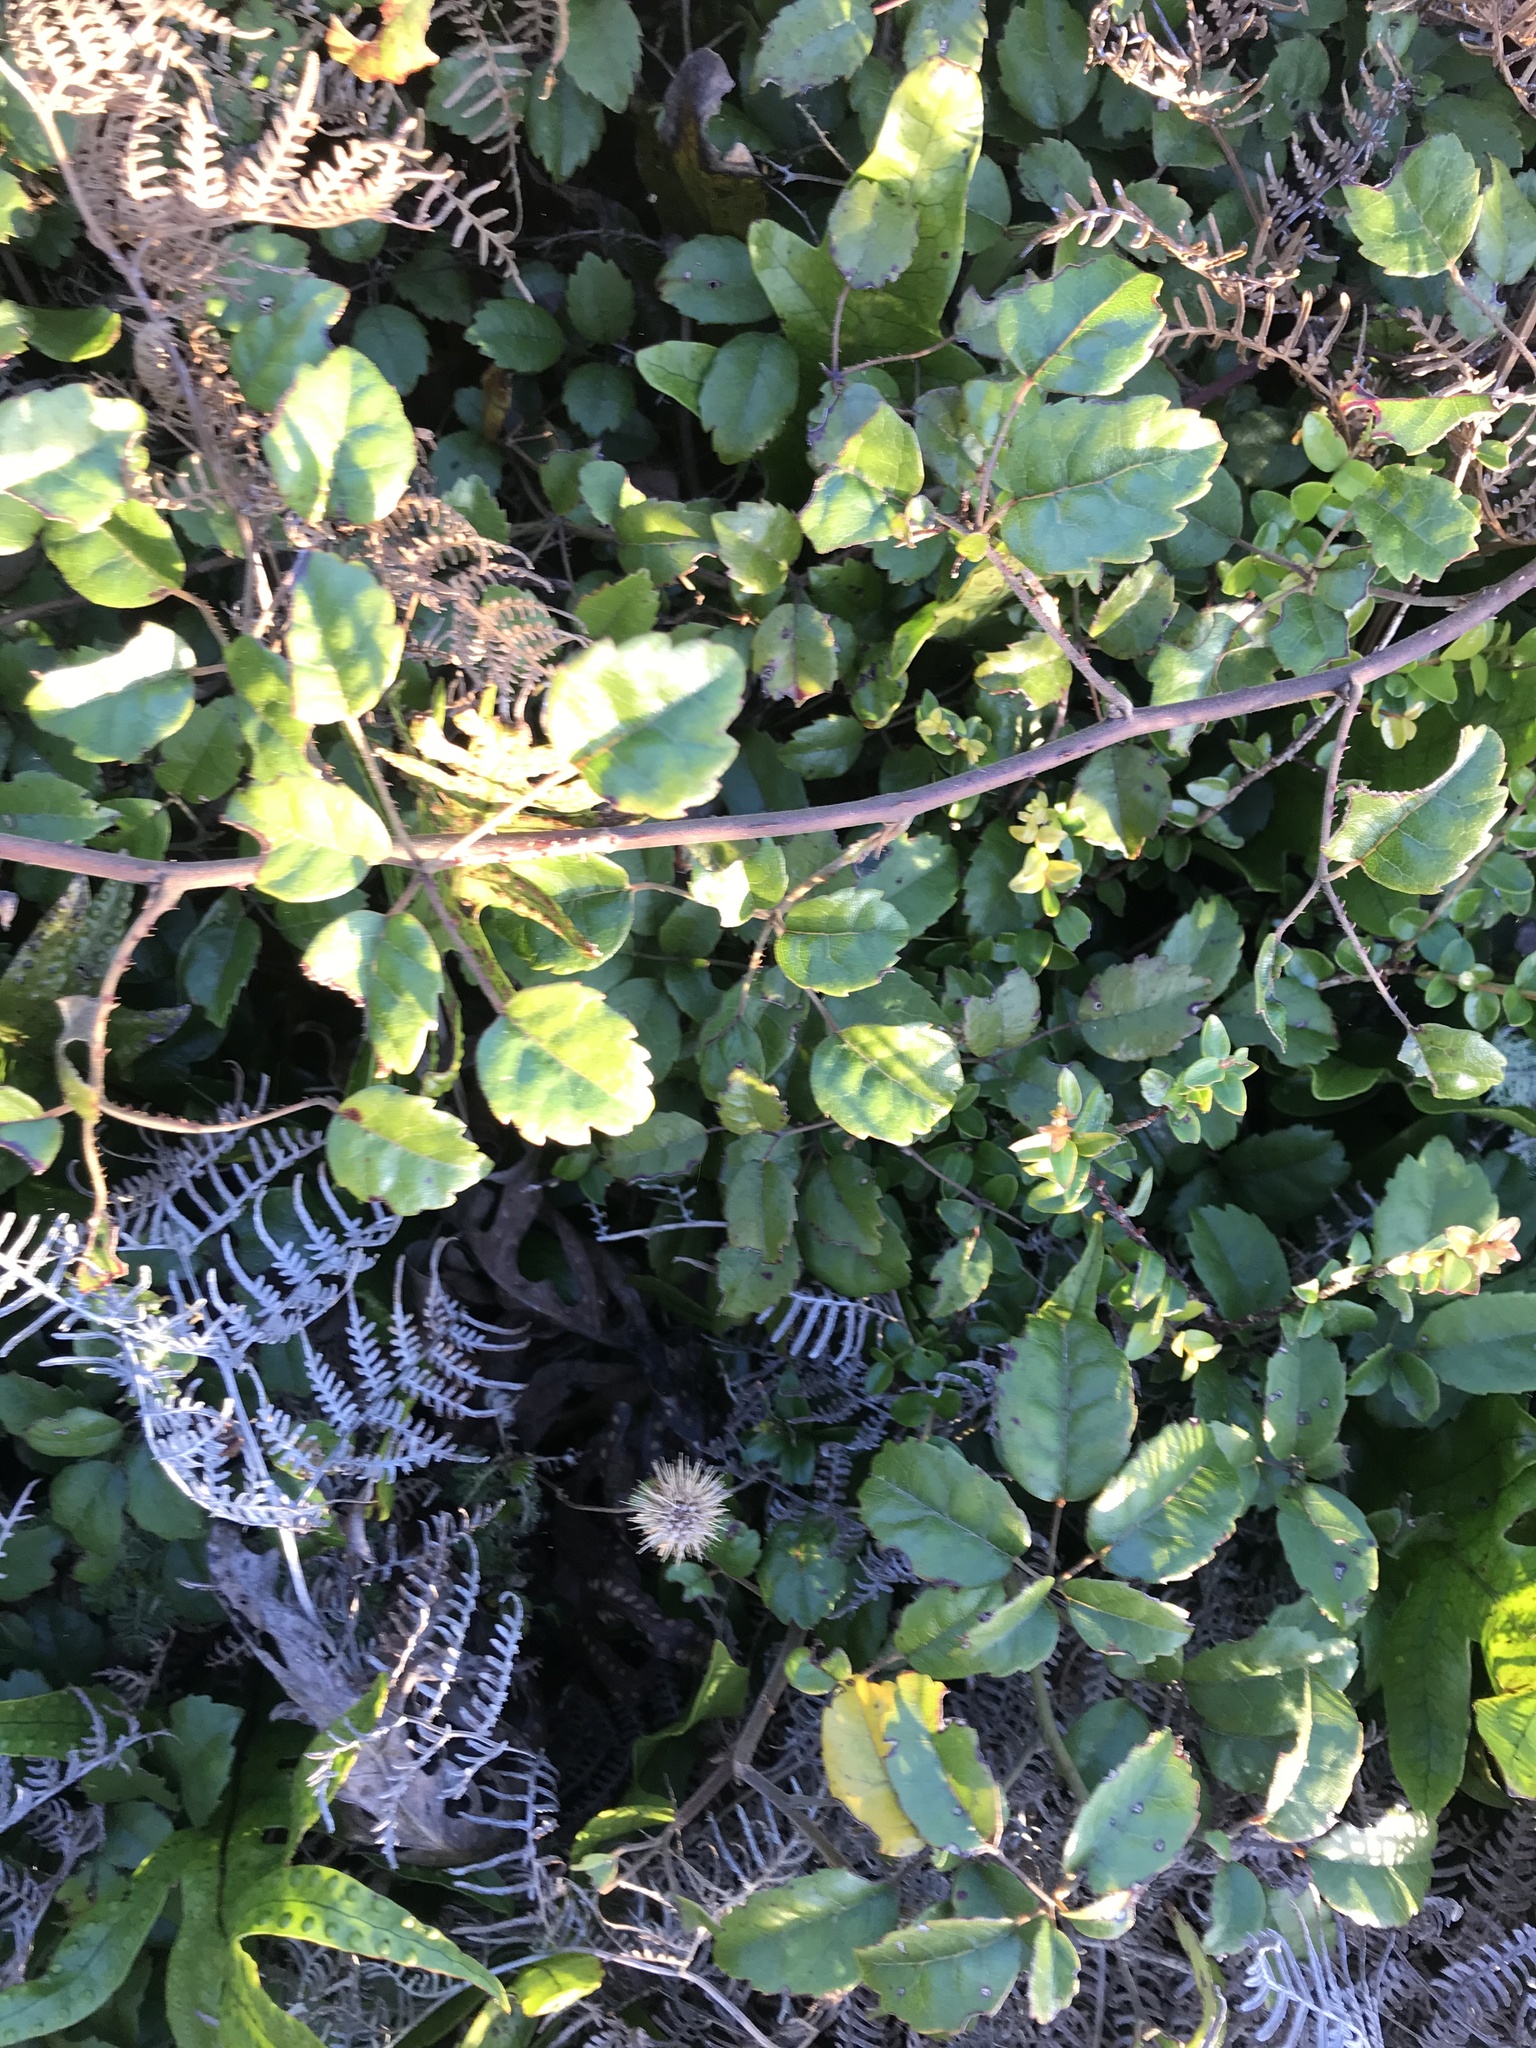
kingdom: Plantae
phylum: Tracheophyta
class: Magnoliopsida
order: Rosales
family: Rosaceae
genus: Rubus
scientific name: Rubus australis
